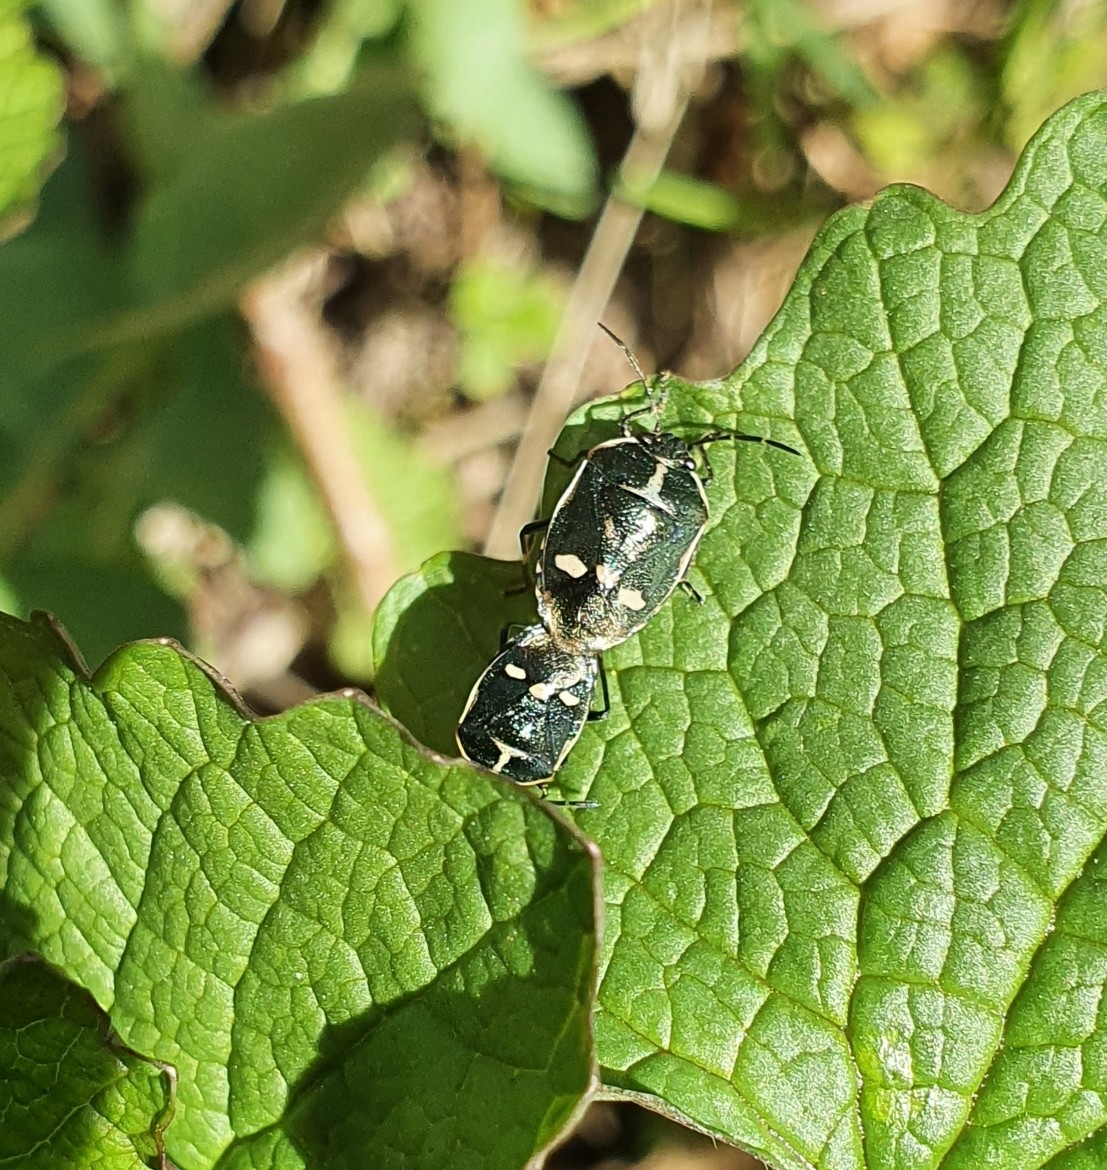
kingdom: Animalia
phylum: Arthropoda
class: Insecta
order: Hemiptera
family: Pentatomidae
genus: Eurydema
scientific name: Eurydema oleracea
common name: Cabbage bug
